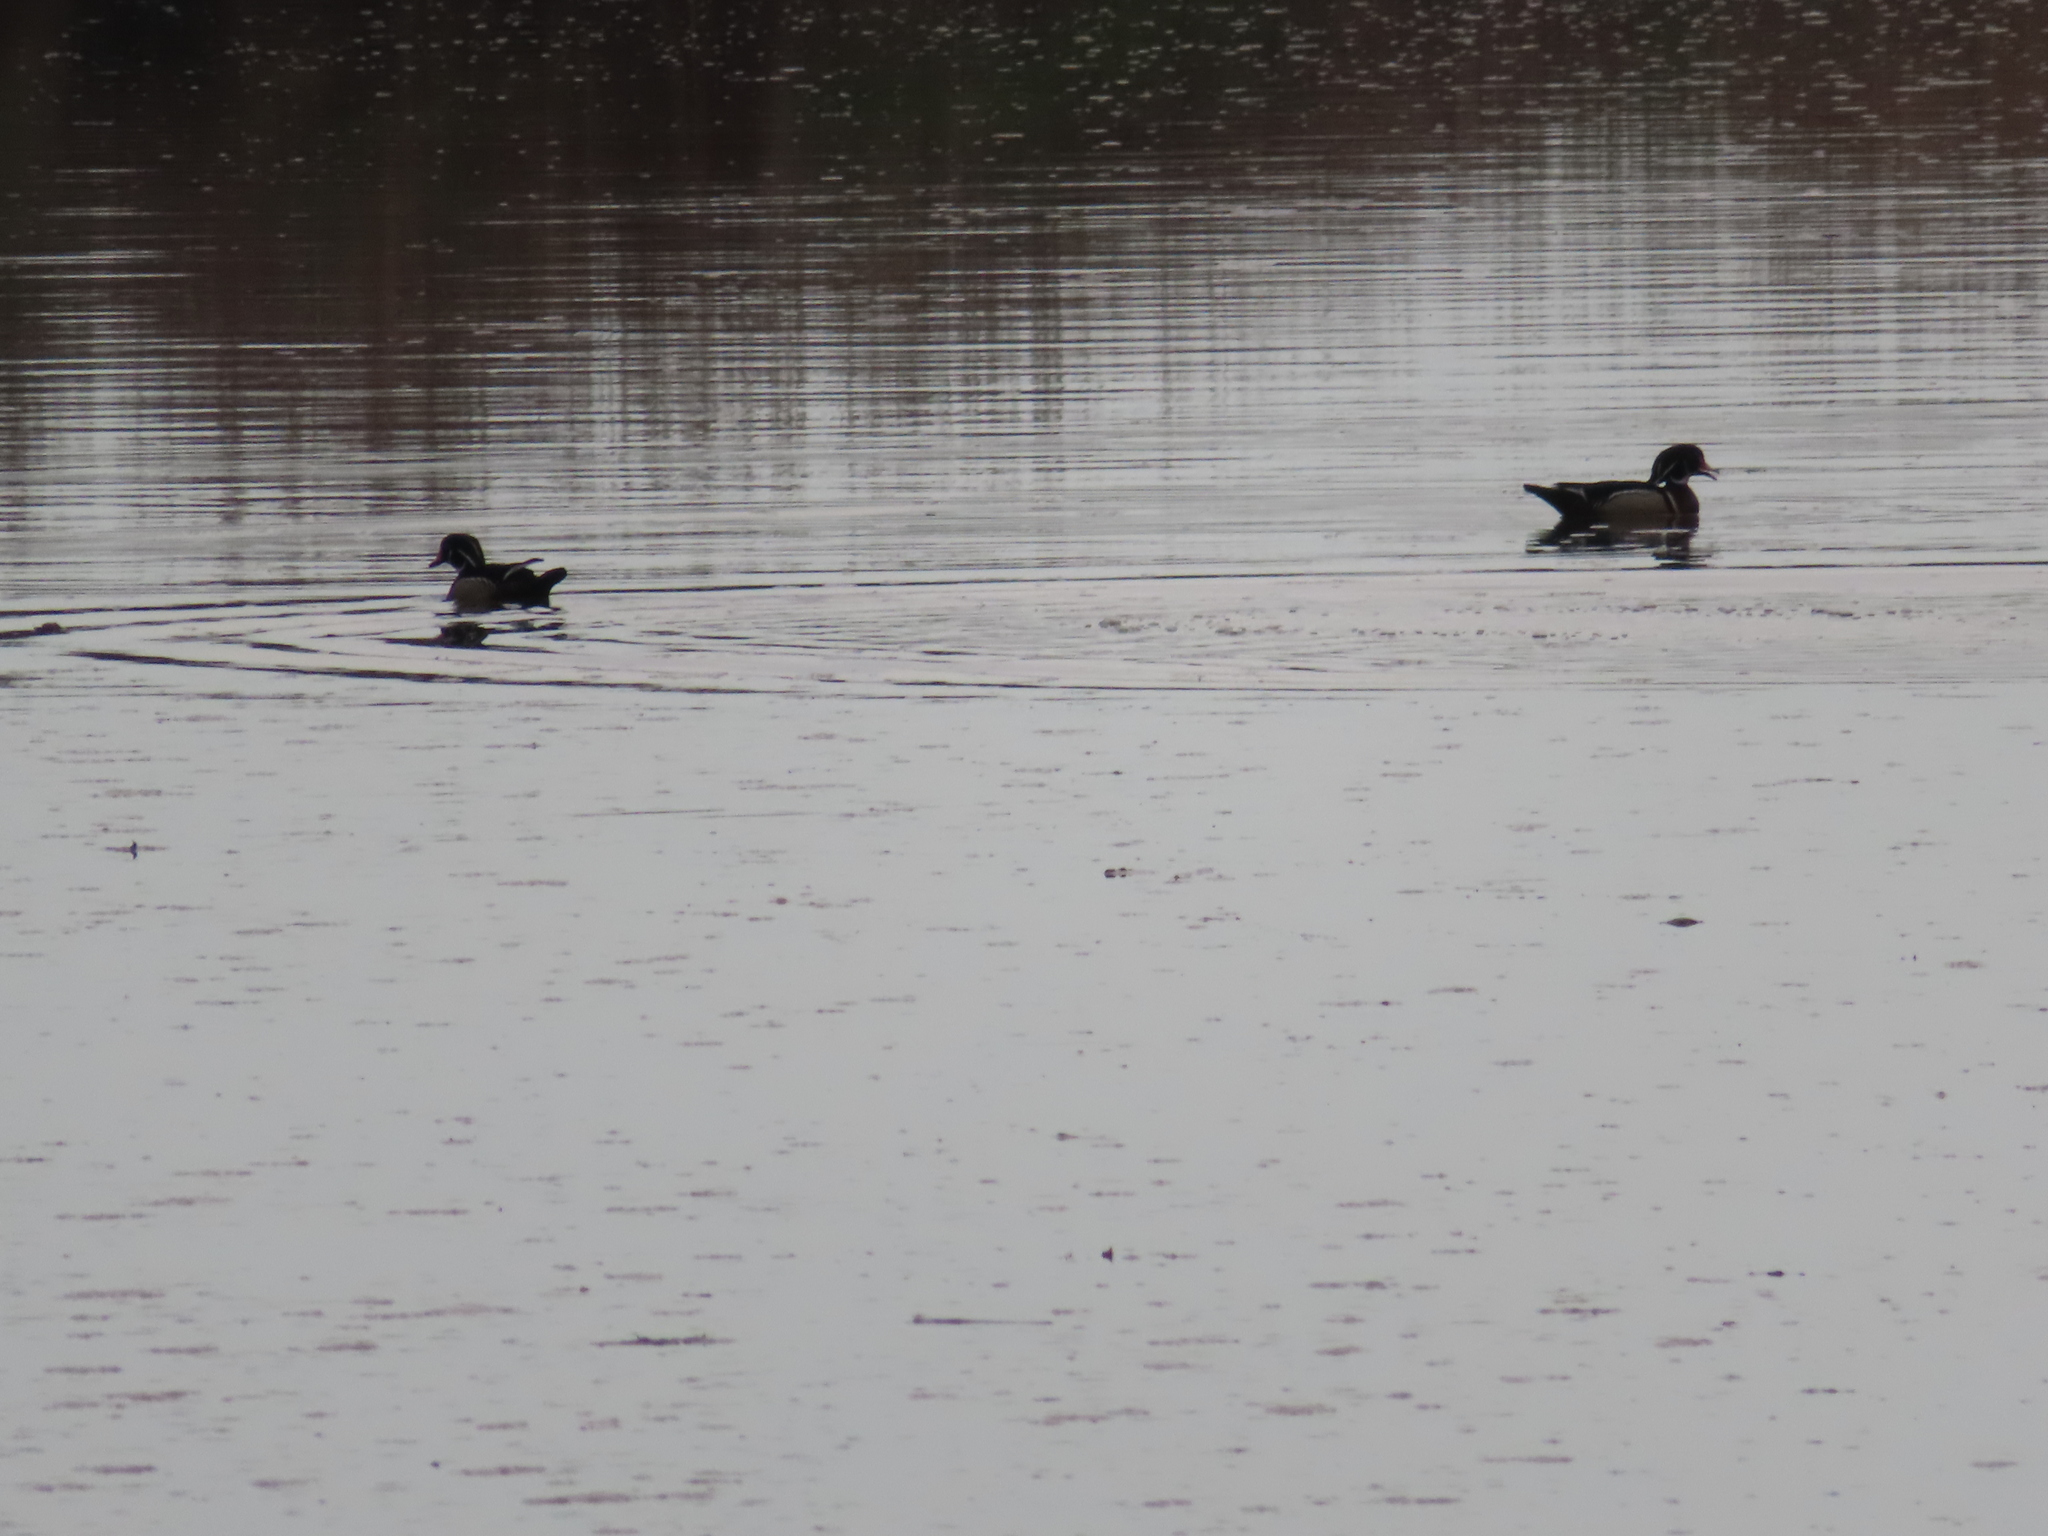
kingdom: Animalia
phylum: Chordata
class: Aves
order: Anseriformes
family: Anatidae
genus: Aix
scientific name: Aix sponsa
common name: Wood duck
